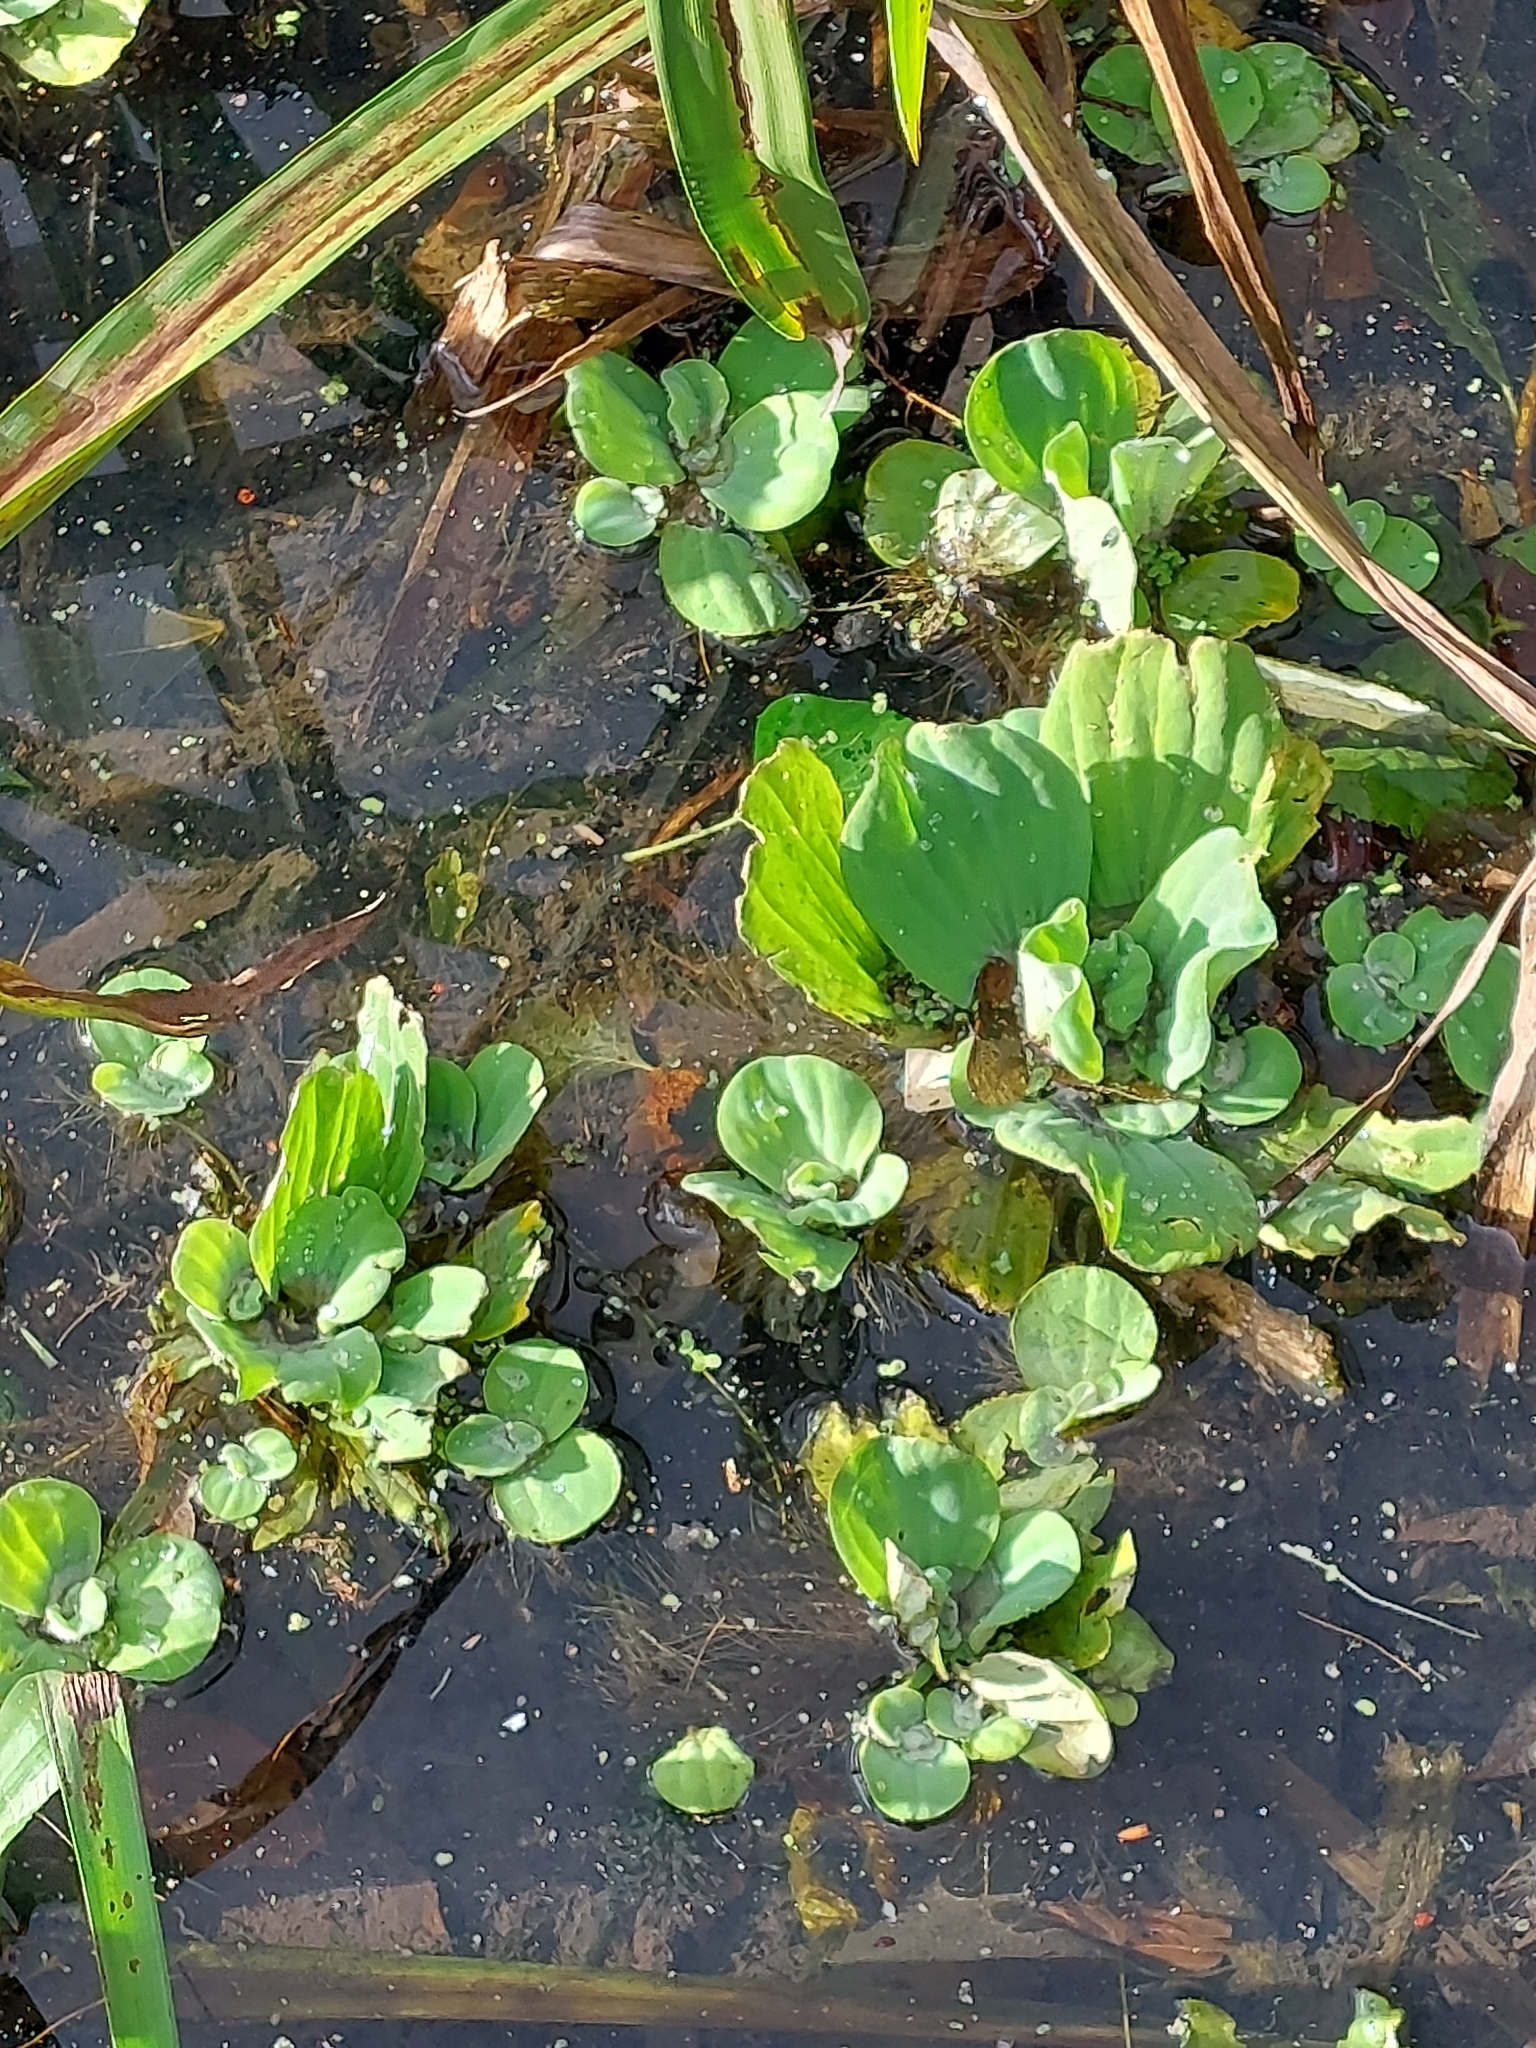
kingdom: Plantae
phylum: Tracheophyta
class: Liliopsida
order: Alismatales
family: Araceae
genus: Pistia
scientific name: Pistia stratiotes
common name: Water lettuce
